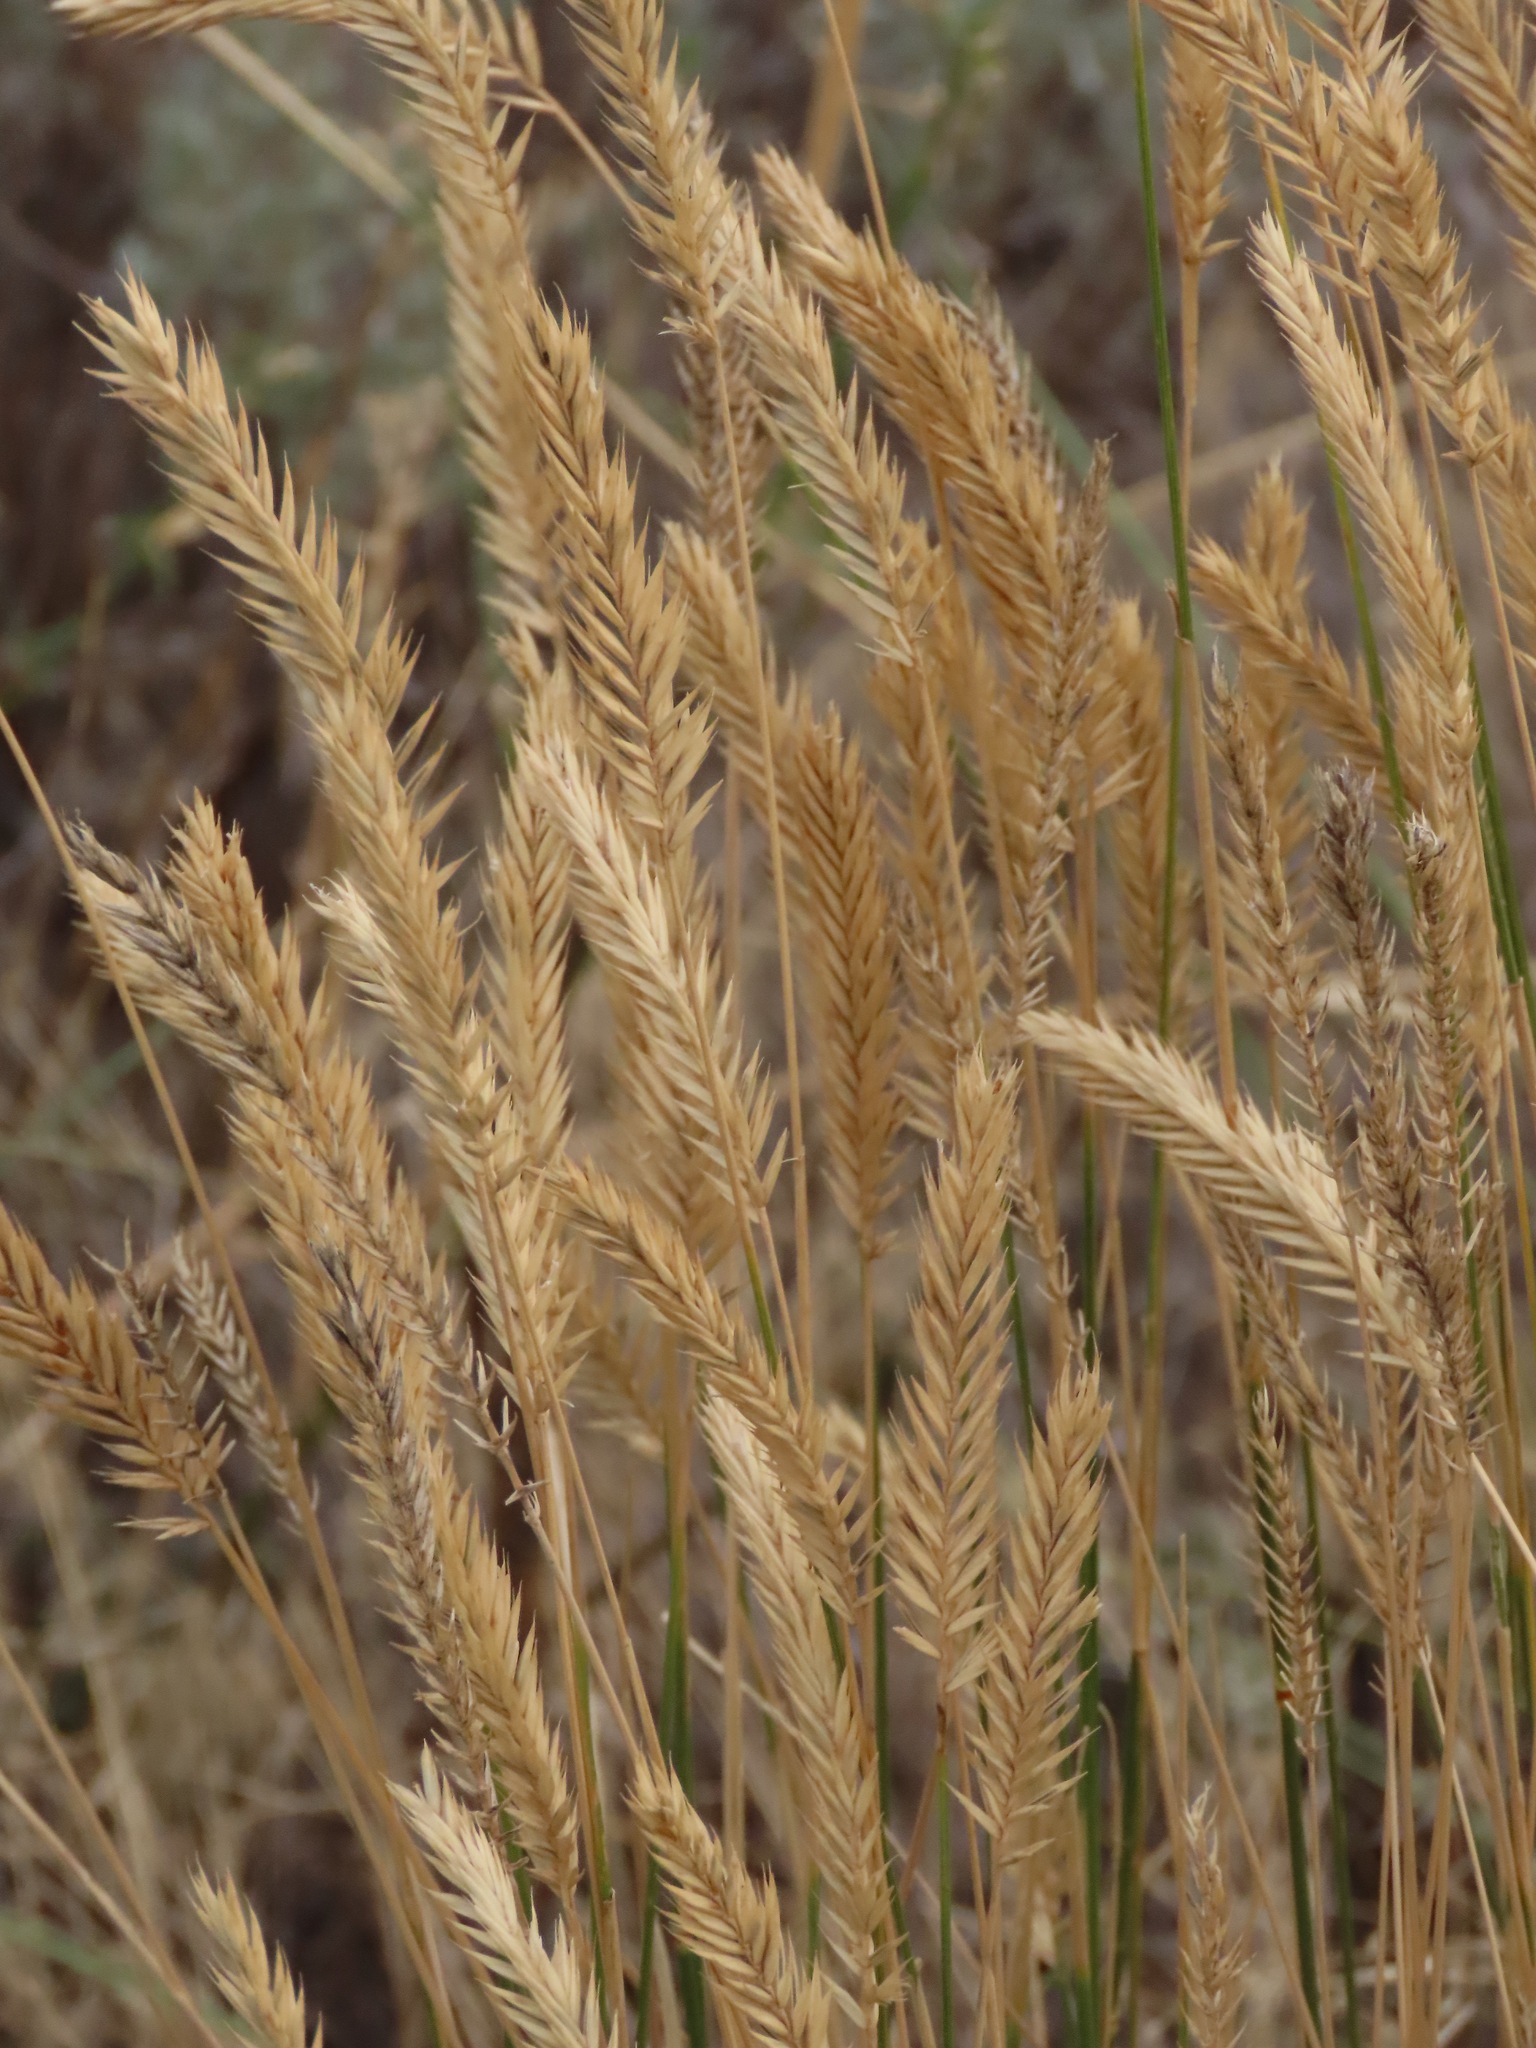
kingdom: Plantae
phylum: Tracheophyta
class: Liliopsida
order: Poales
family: Poaceae
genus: Agropyron
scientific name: Agropyron cristatum
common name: Crested wheatgrass
